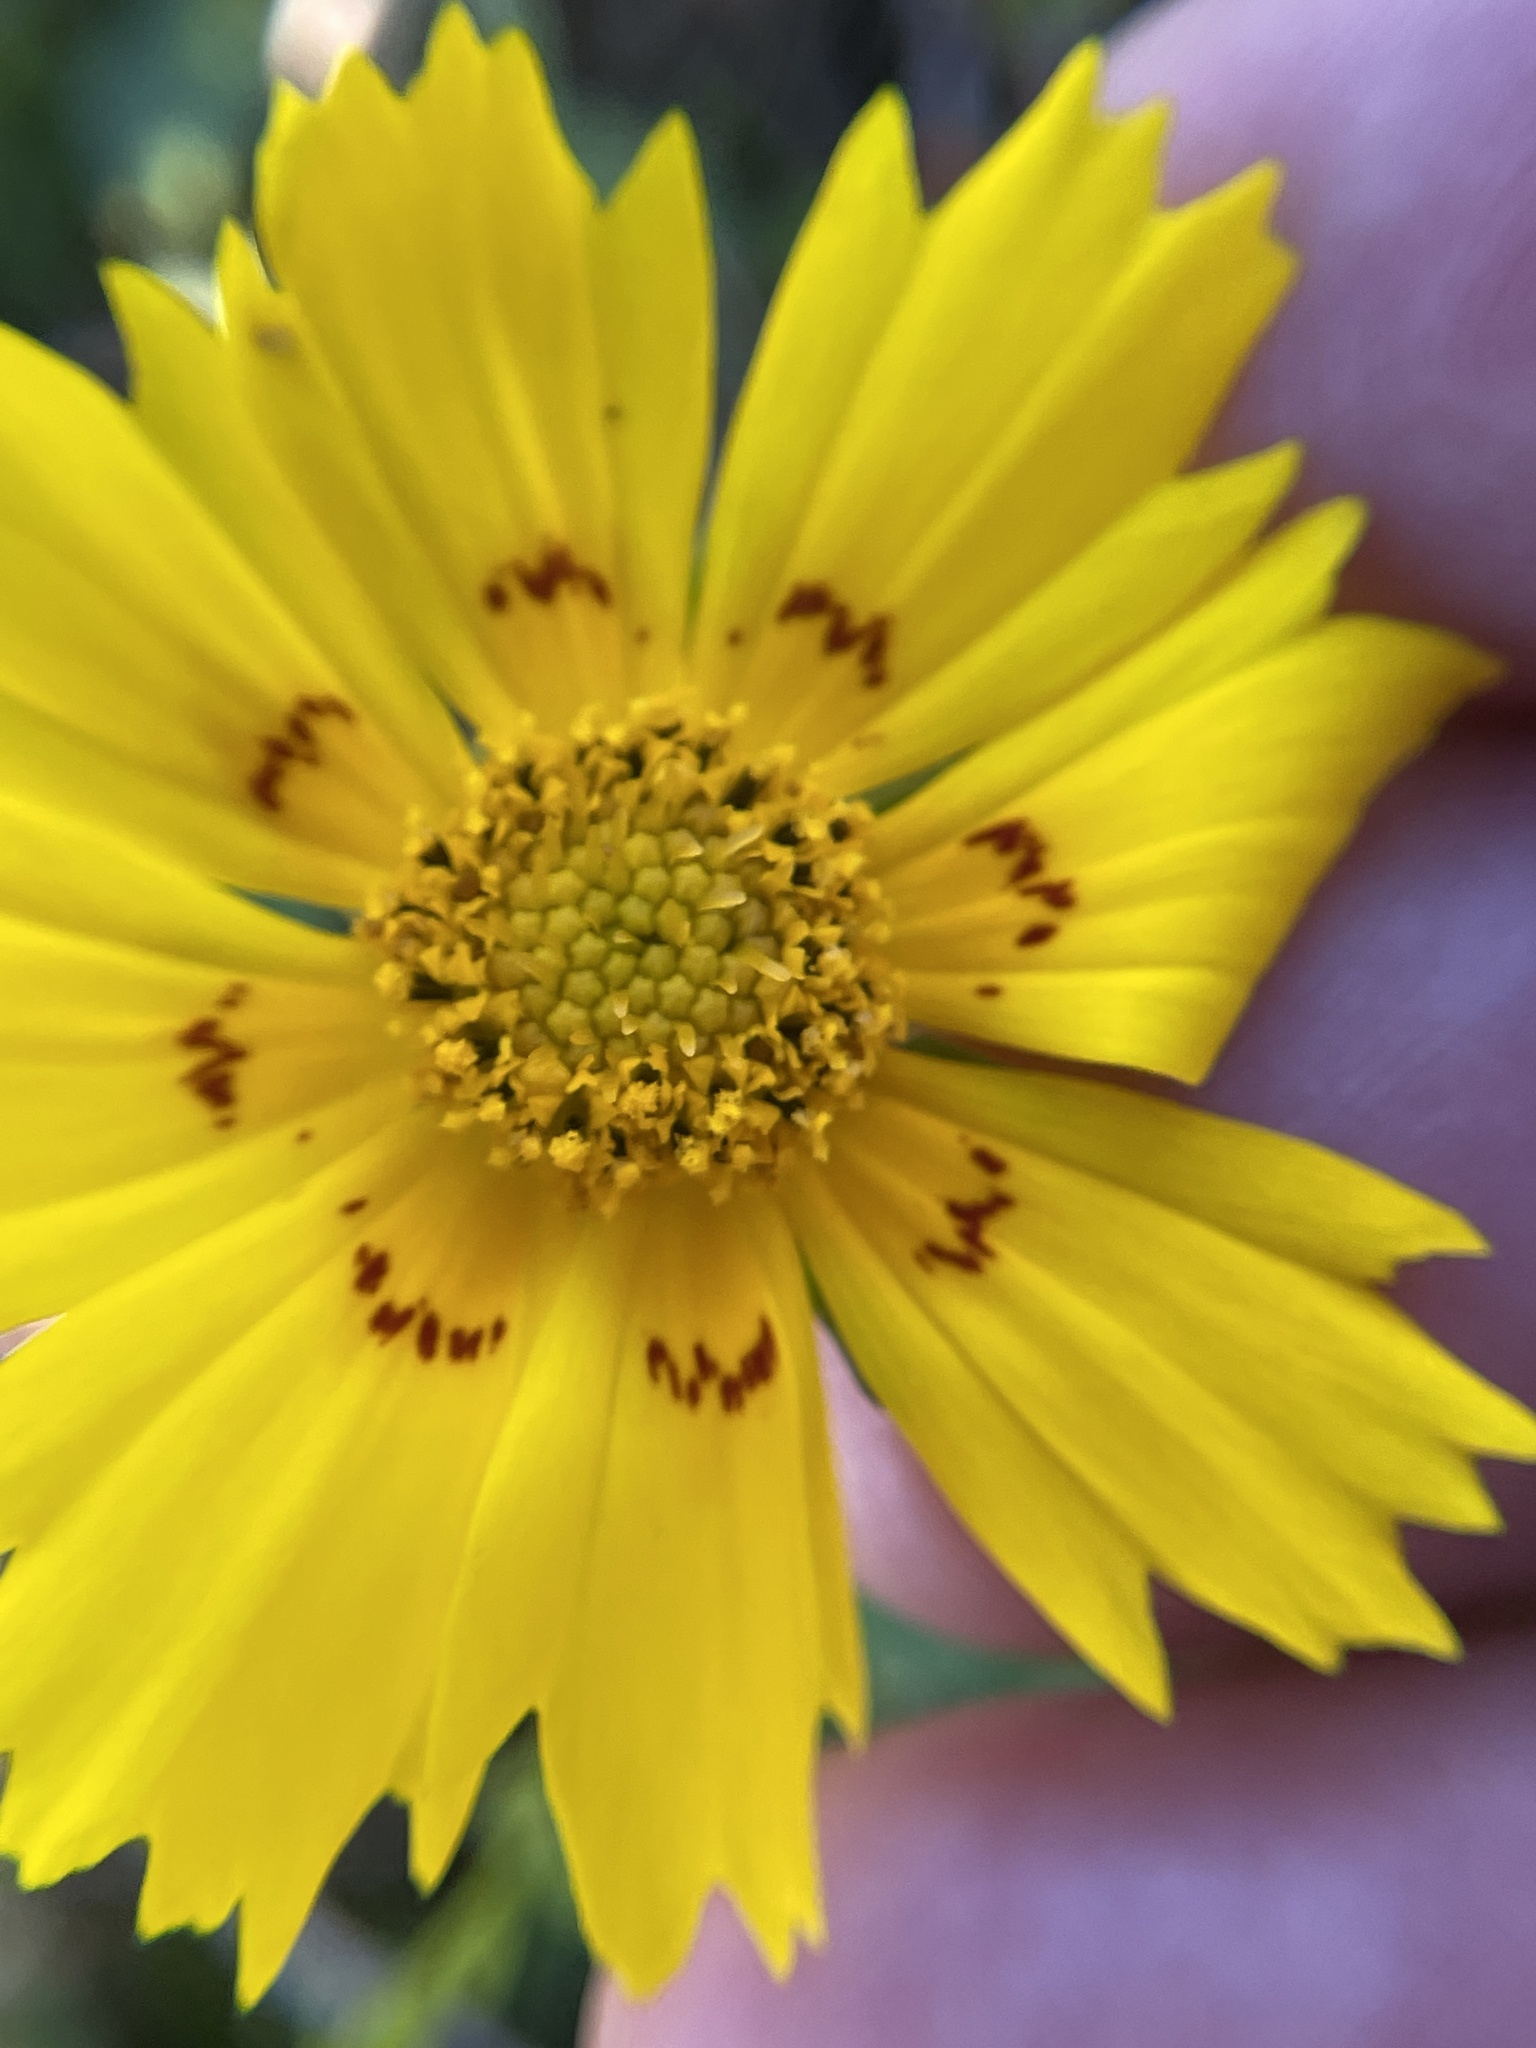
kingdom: Plantae
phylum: Tracheophyta
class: Magnoliopsida
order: Asterales
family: Asteraceae
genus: Coreopsis
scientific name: Coreopsis nuecensis
